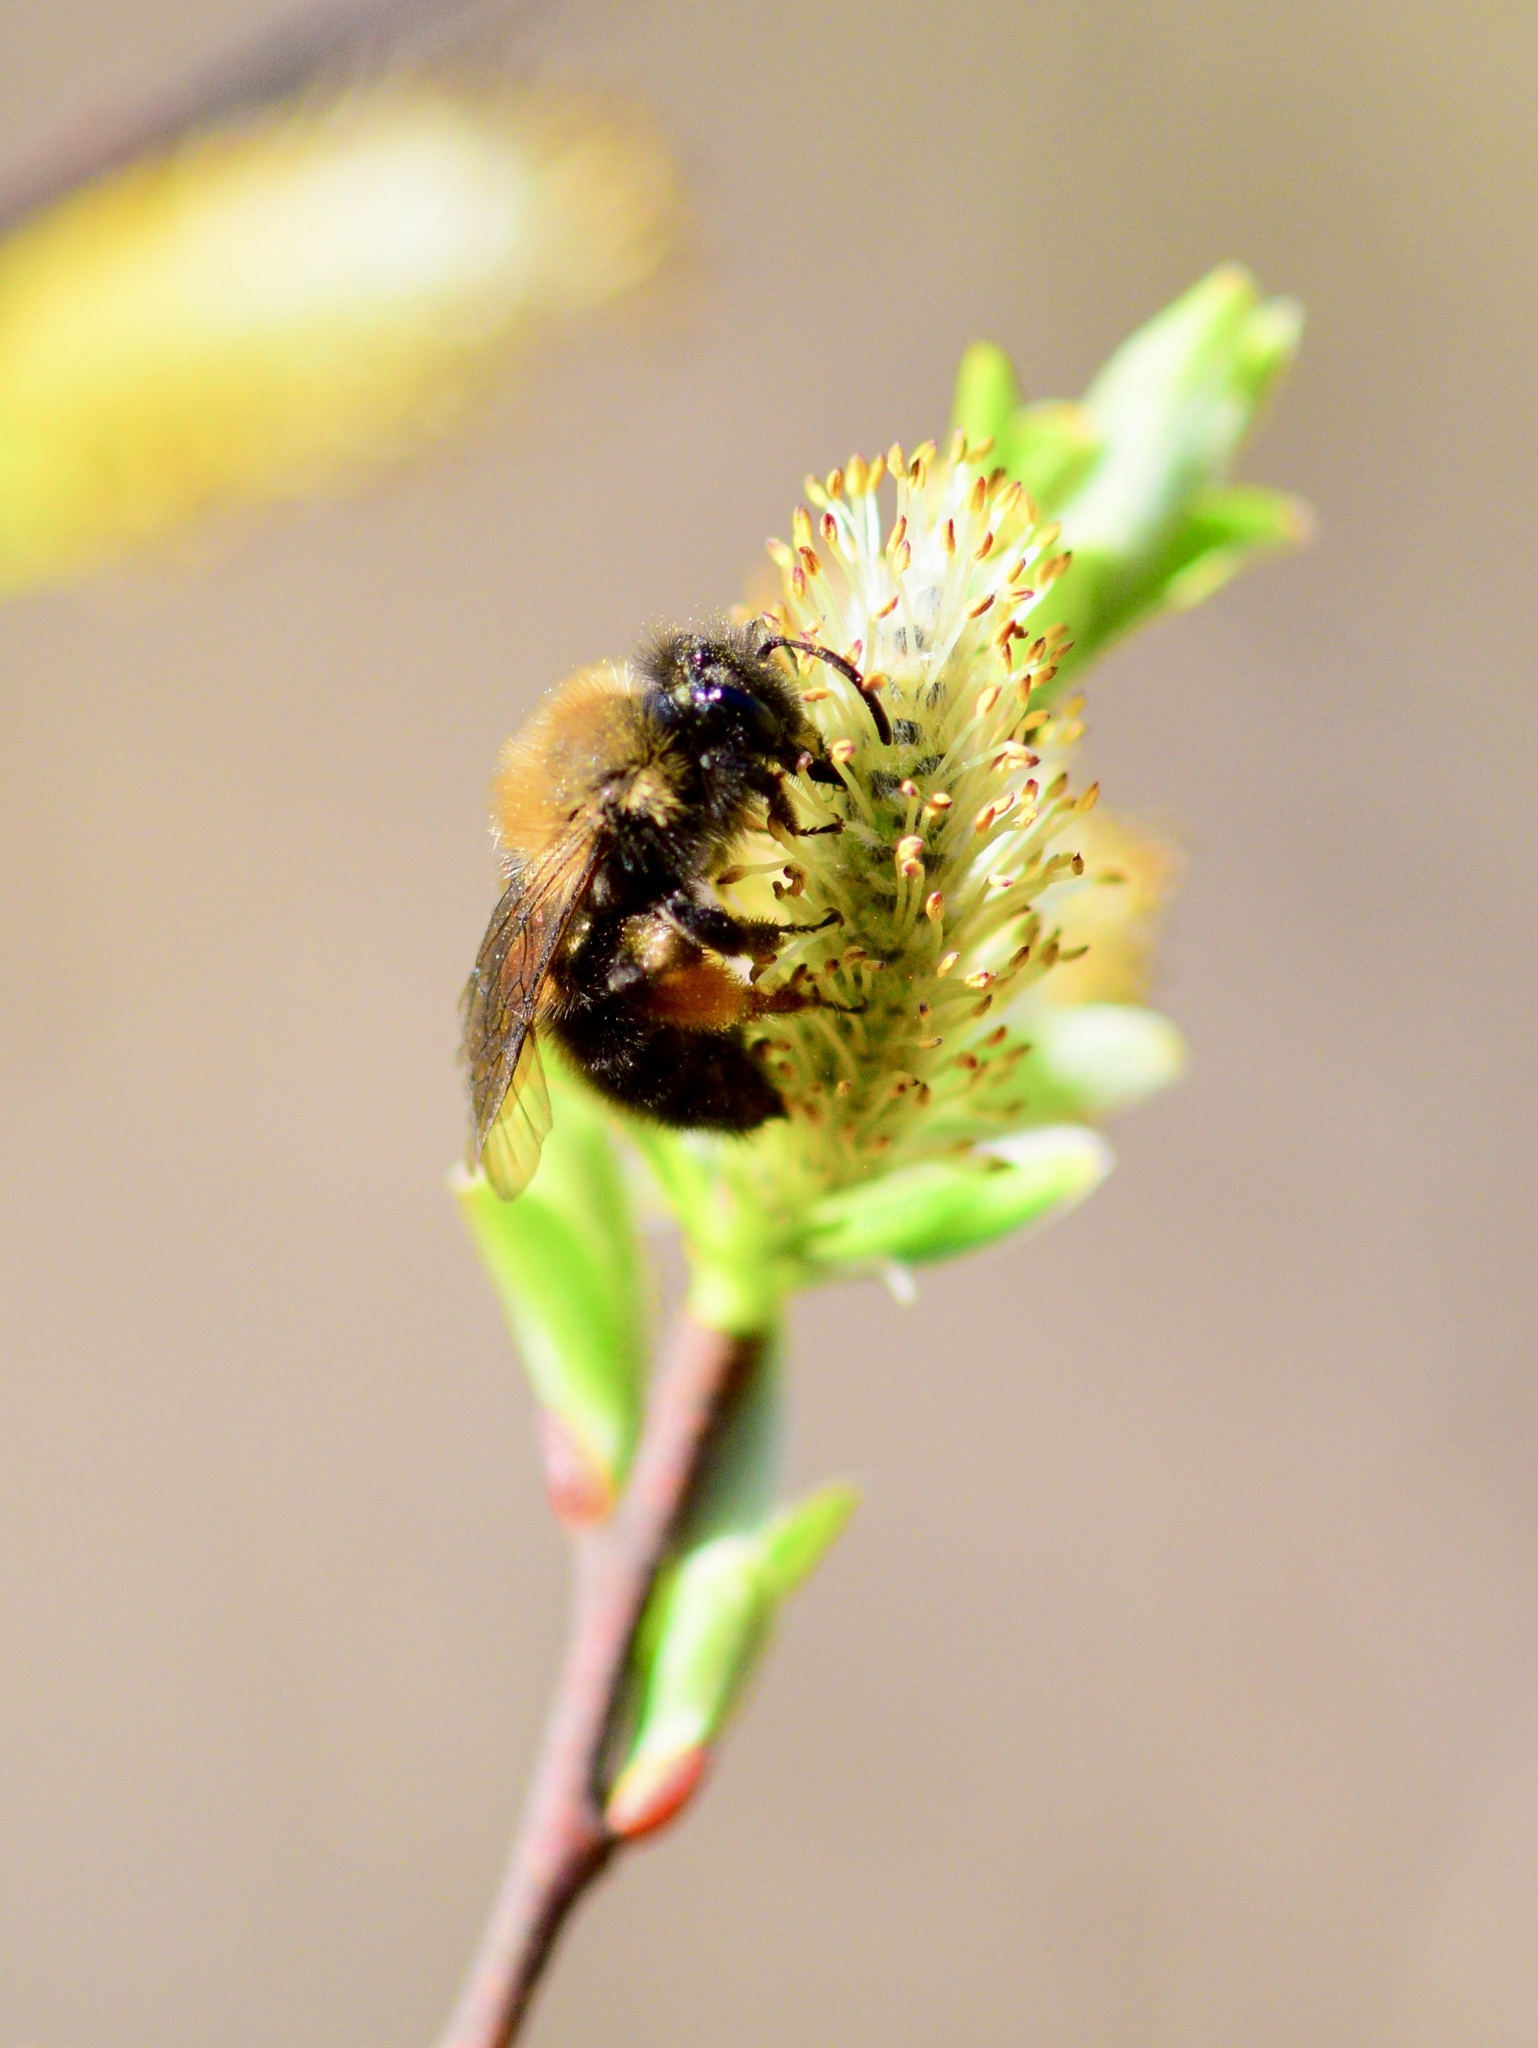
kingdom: Animalia
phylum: Arthropoda
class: Insecta
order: Hymenoptera
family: Andrenidae
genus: Andrena
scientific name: Andrena clarkella
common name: Clarke's mining bee
